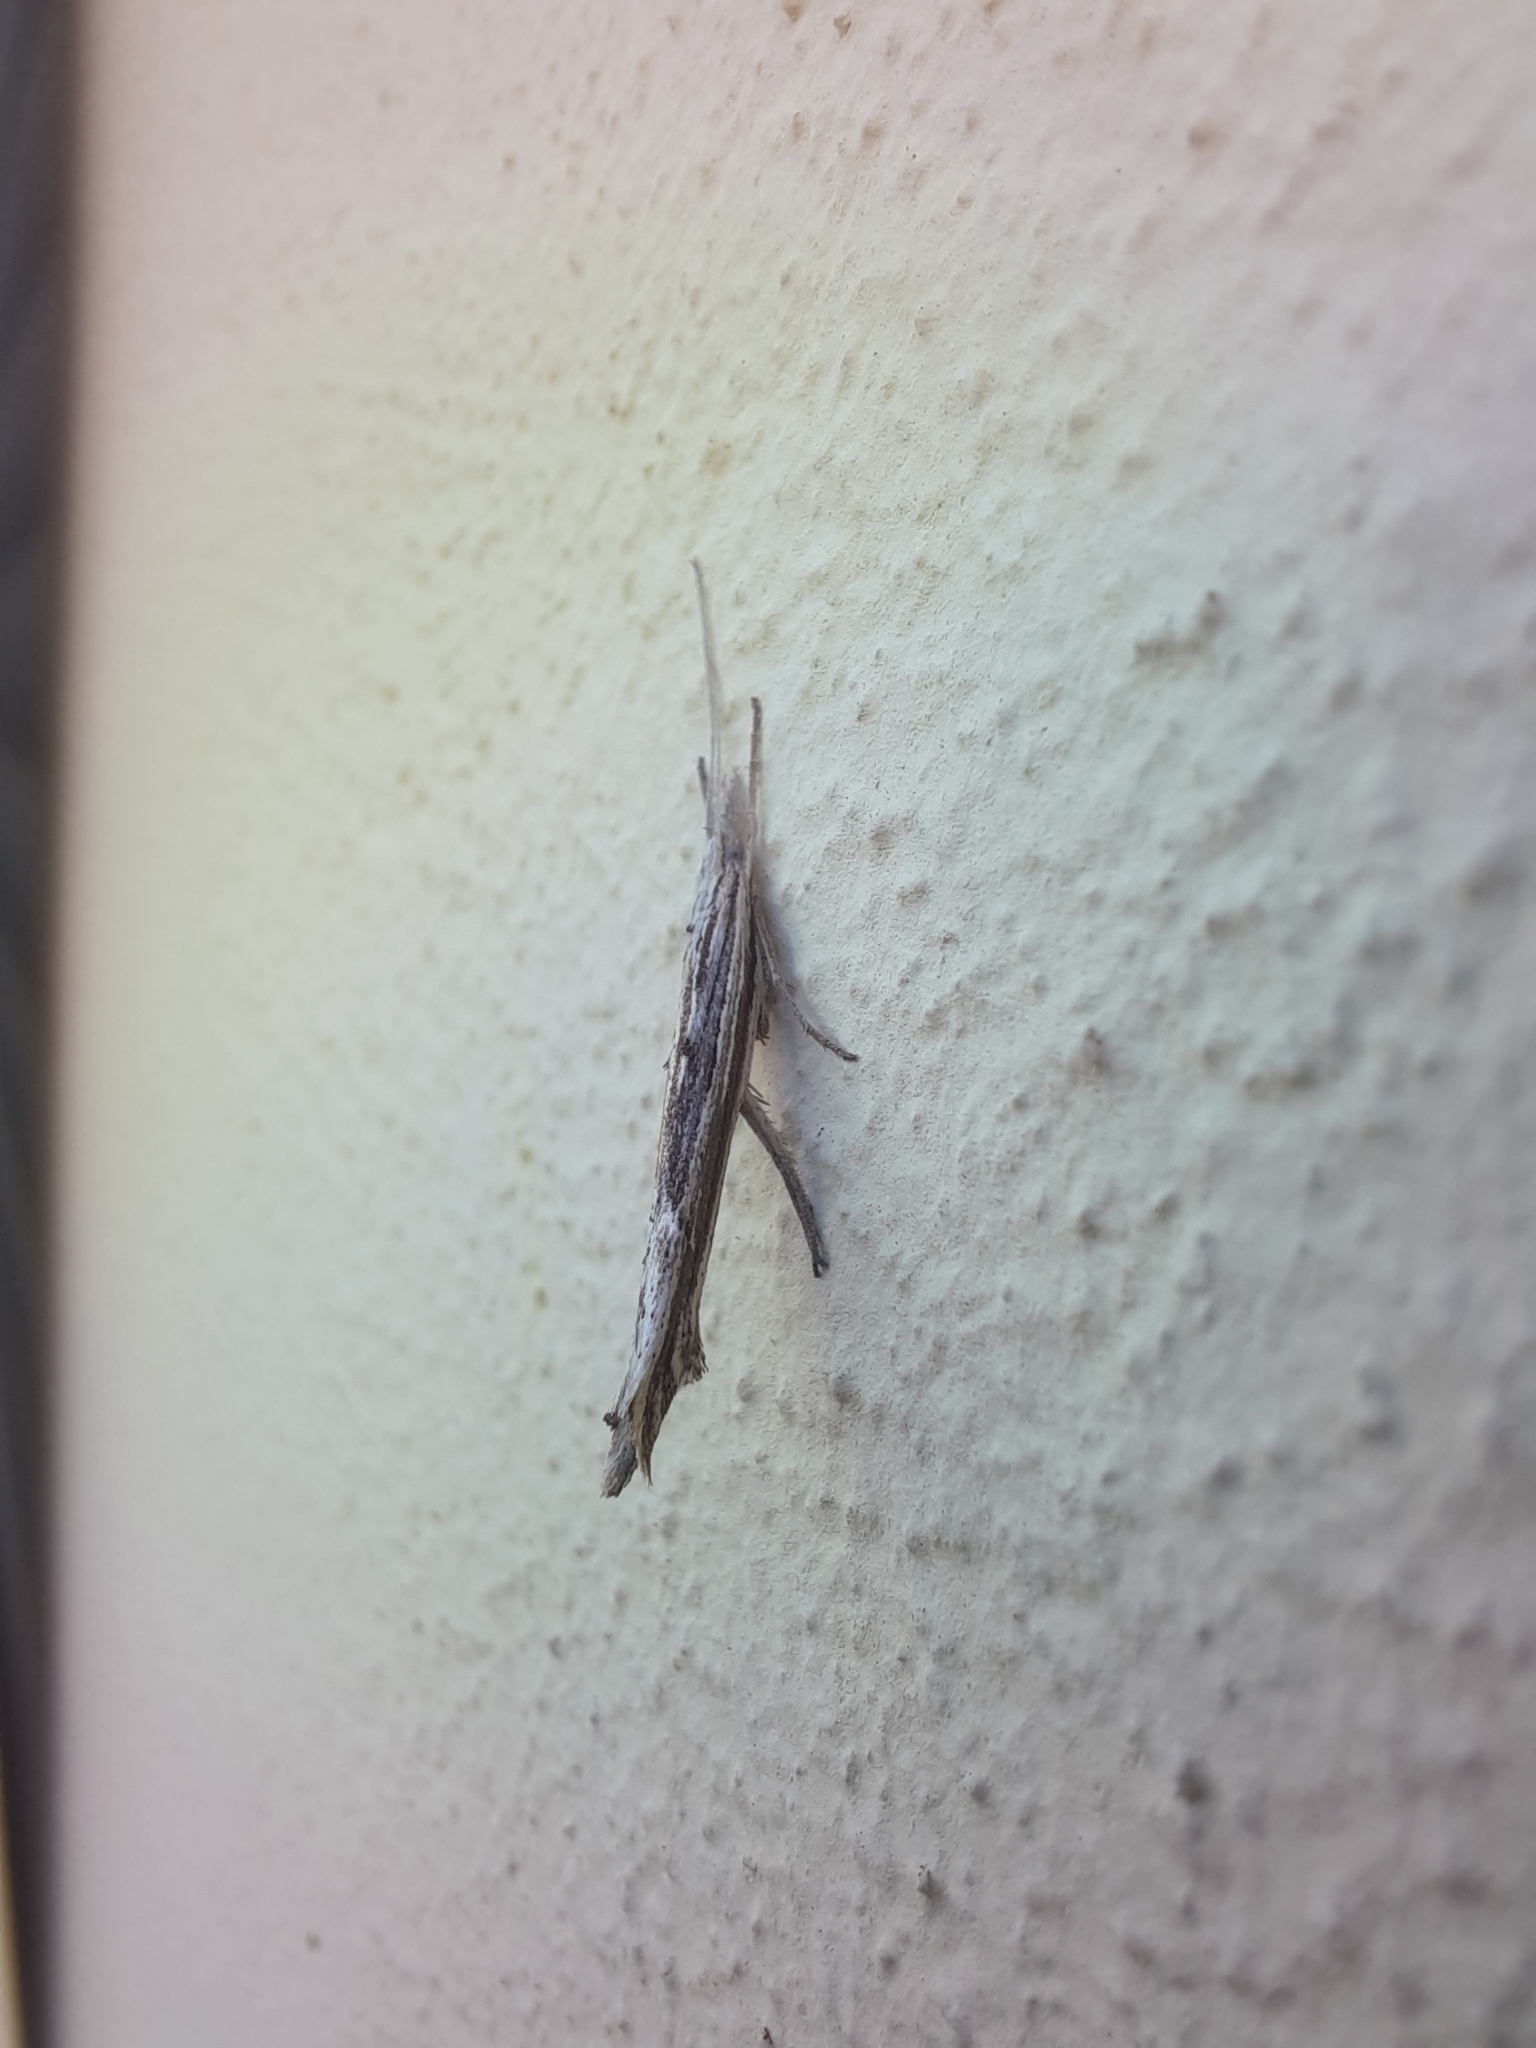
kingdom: Animalia
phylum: Arthropoda
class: Insecta
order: Lepidoptera
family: Ypsolophidae
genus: Ypsolopha
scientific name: Ypsolopha mucronella
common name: Spindle smudge
